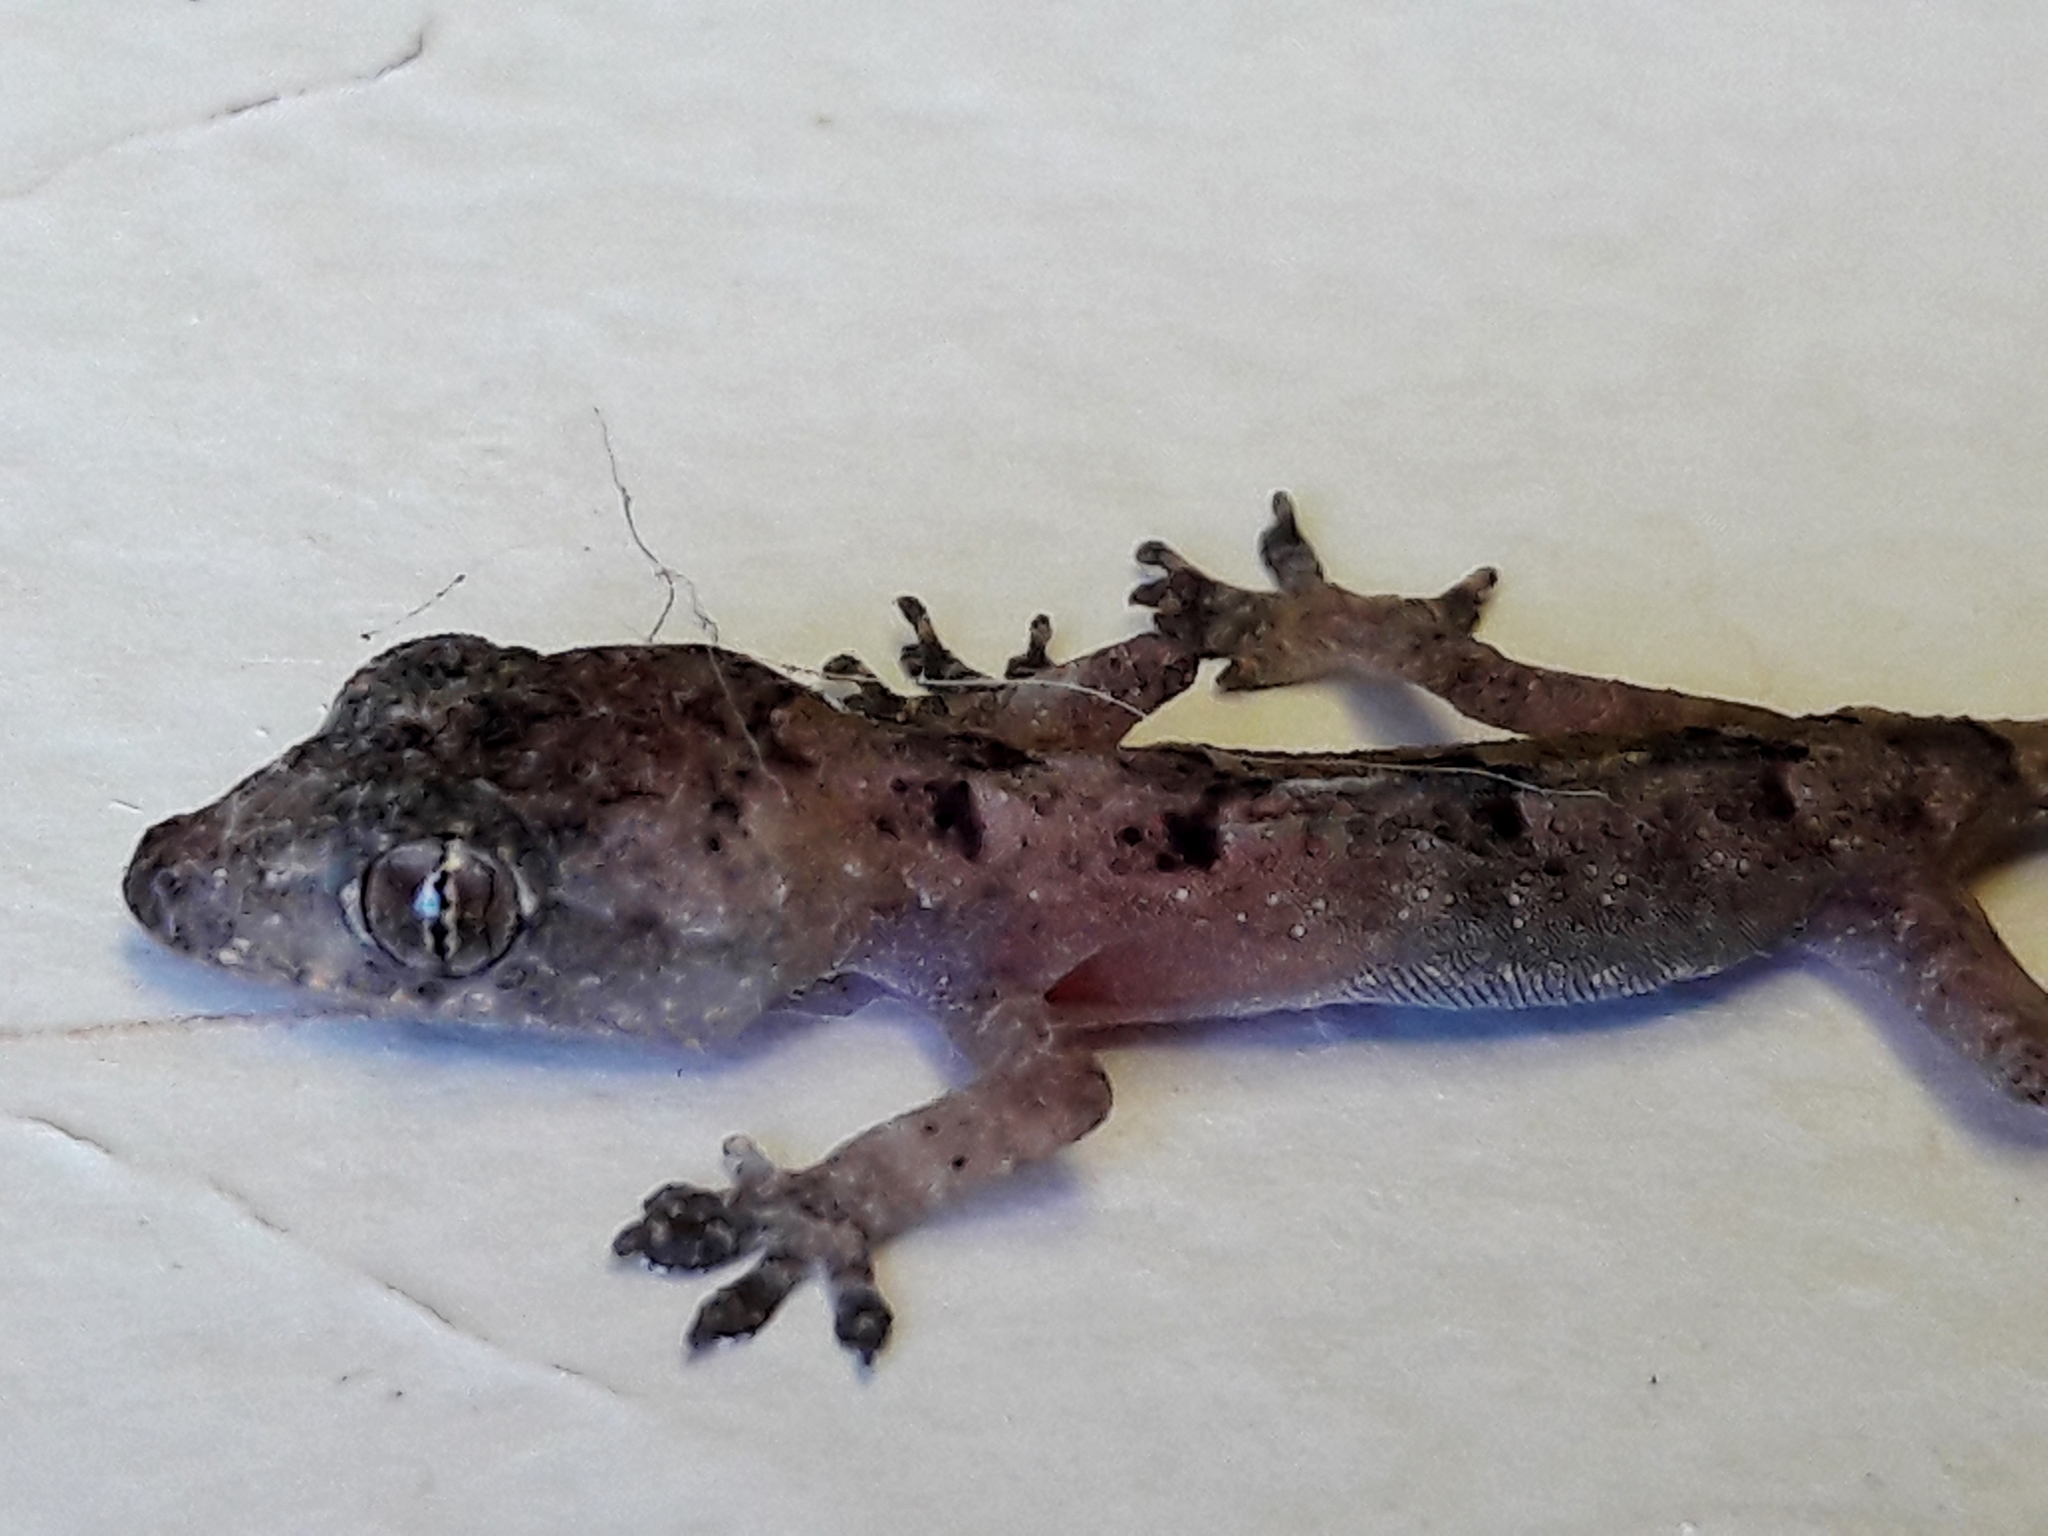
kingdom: Animalia
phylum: Chordata
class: Squamata
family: Gekkonidae
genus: Hemidactylus
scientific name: Hemidactylus mabouia
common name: House gecko
